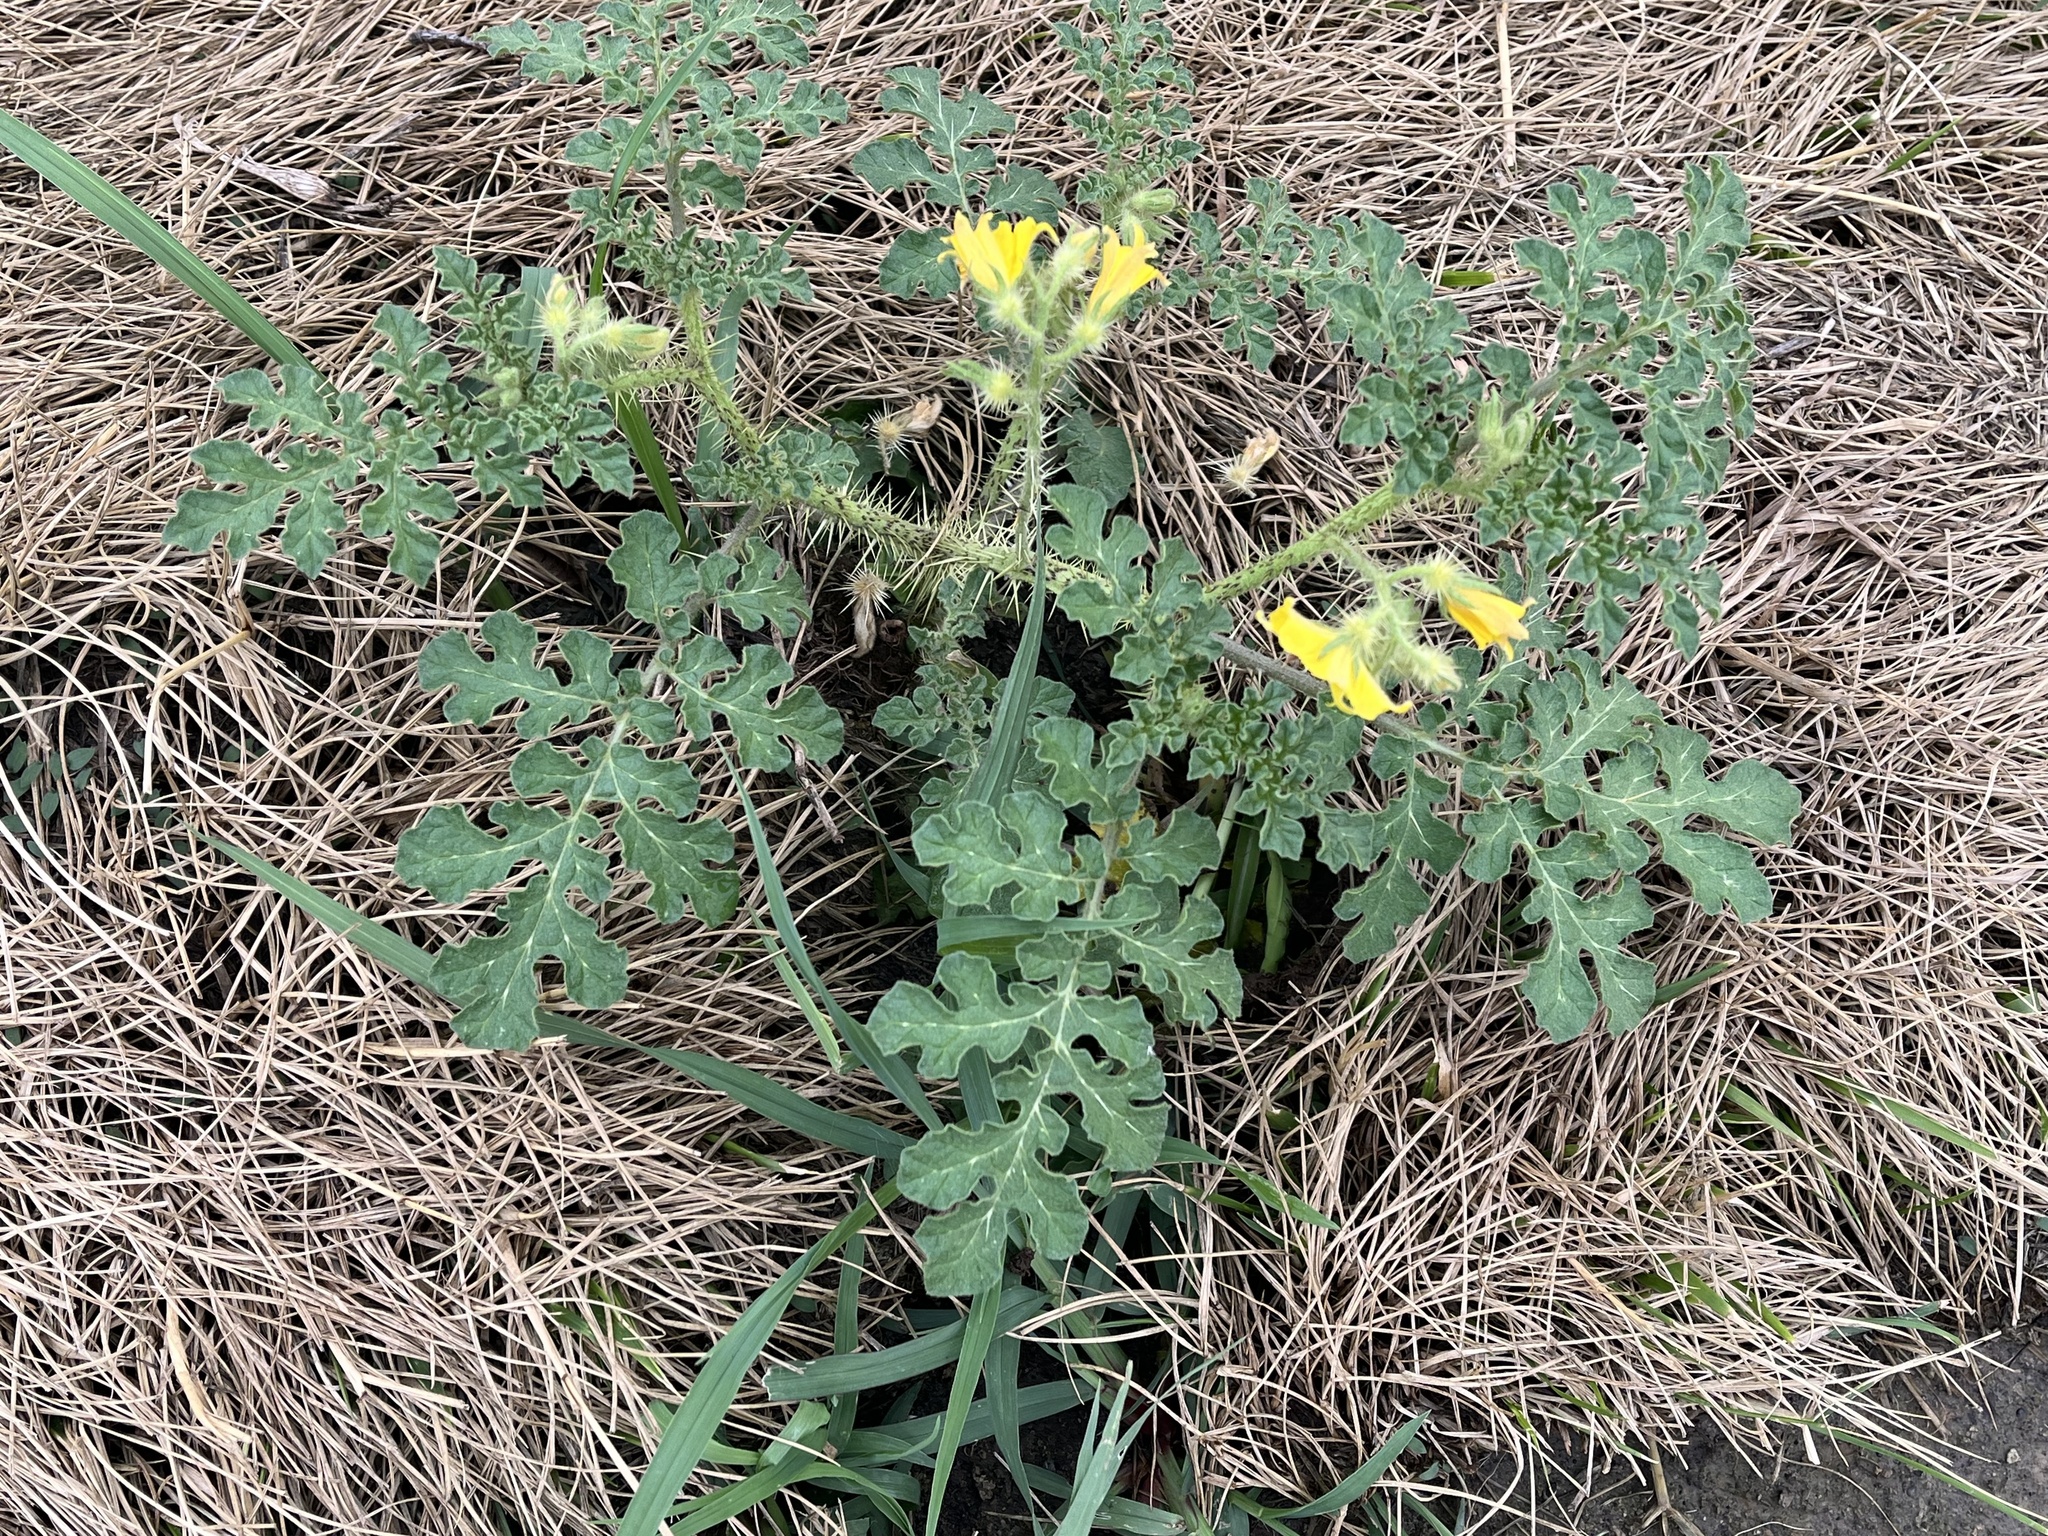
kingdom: Plantae
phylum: Tracheophyta
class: Magnoliopsida
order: Solanales
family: Solanaceae
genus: Solanum
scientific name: Solanum angustifolium
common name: Buffalobur nightshade
